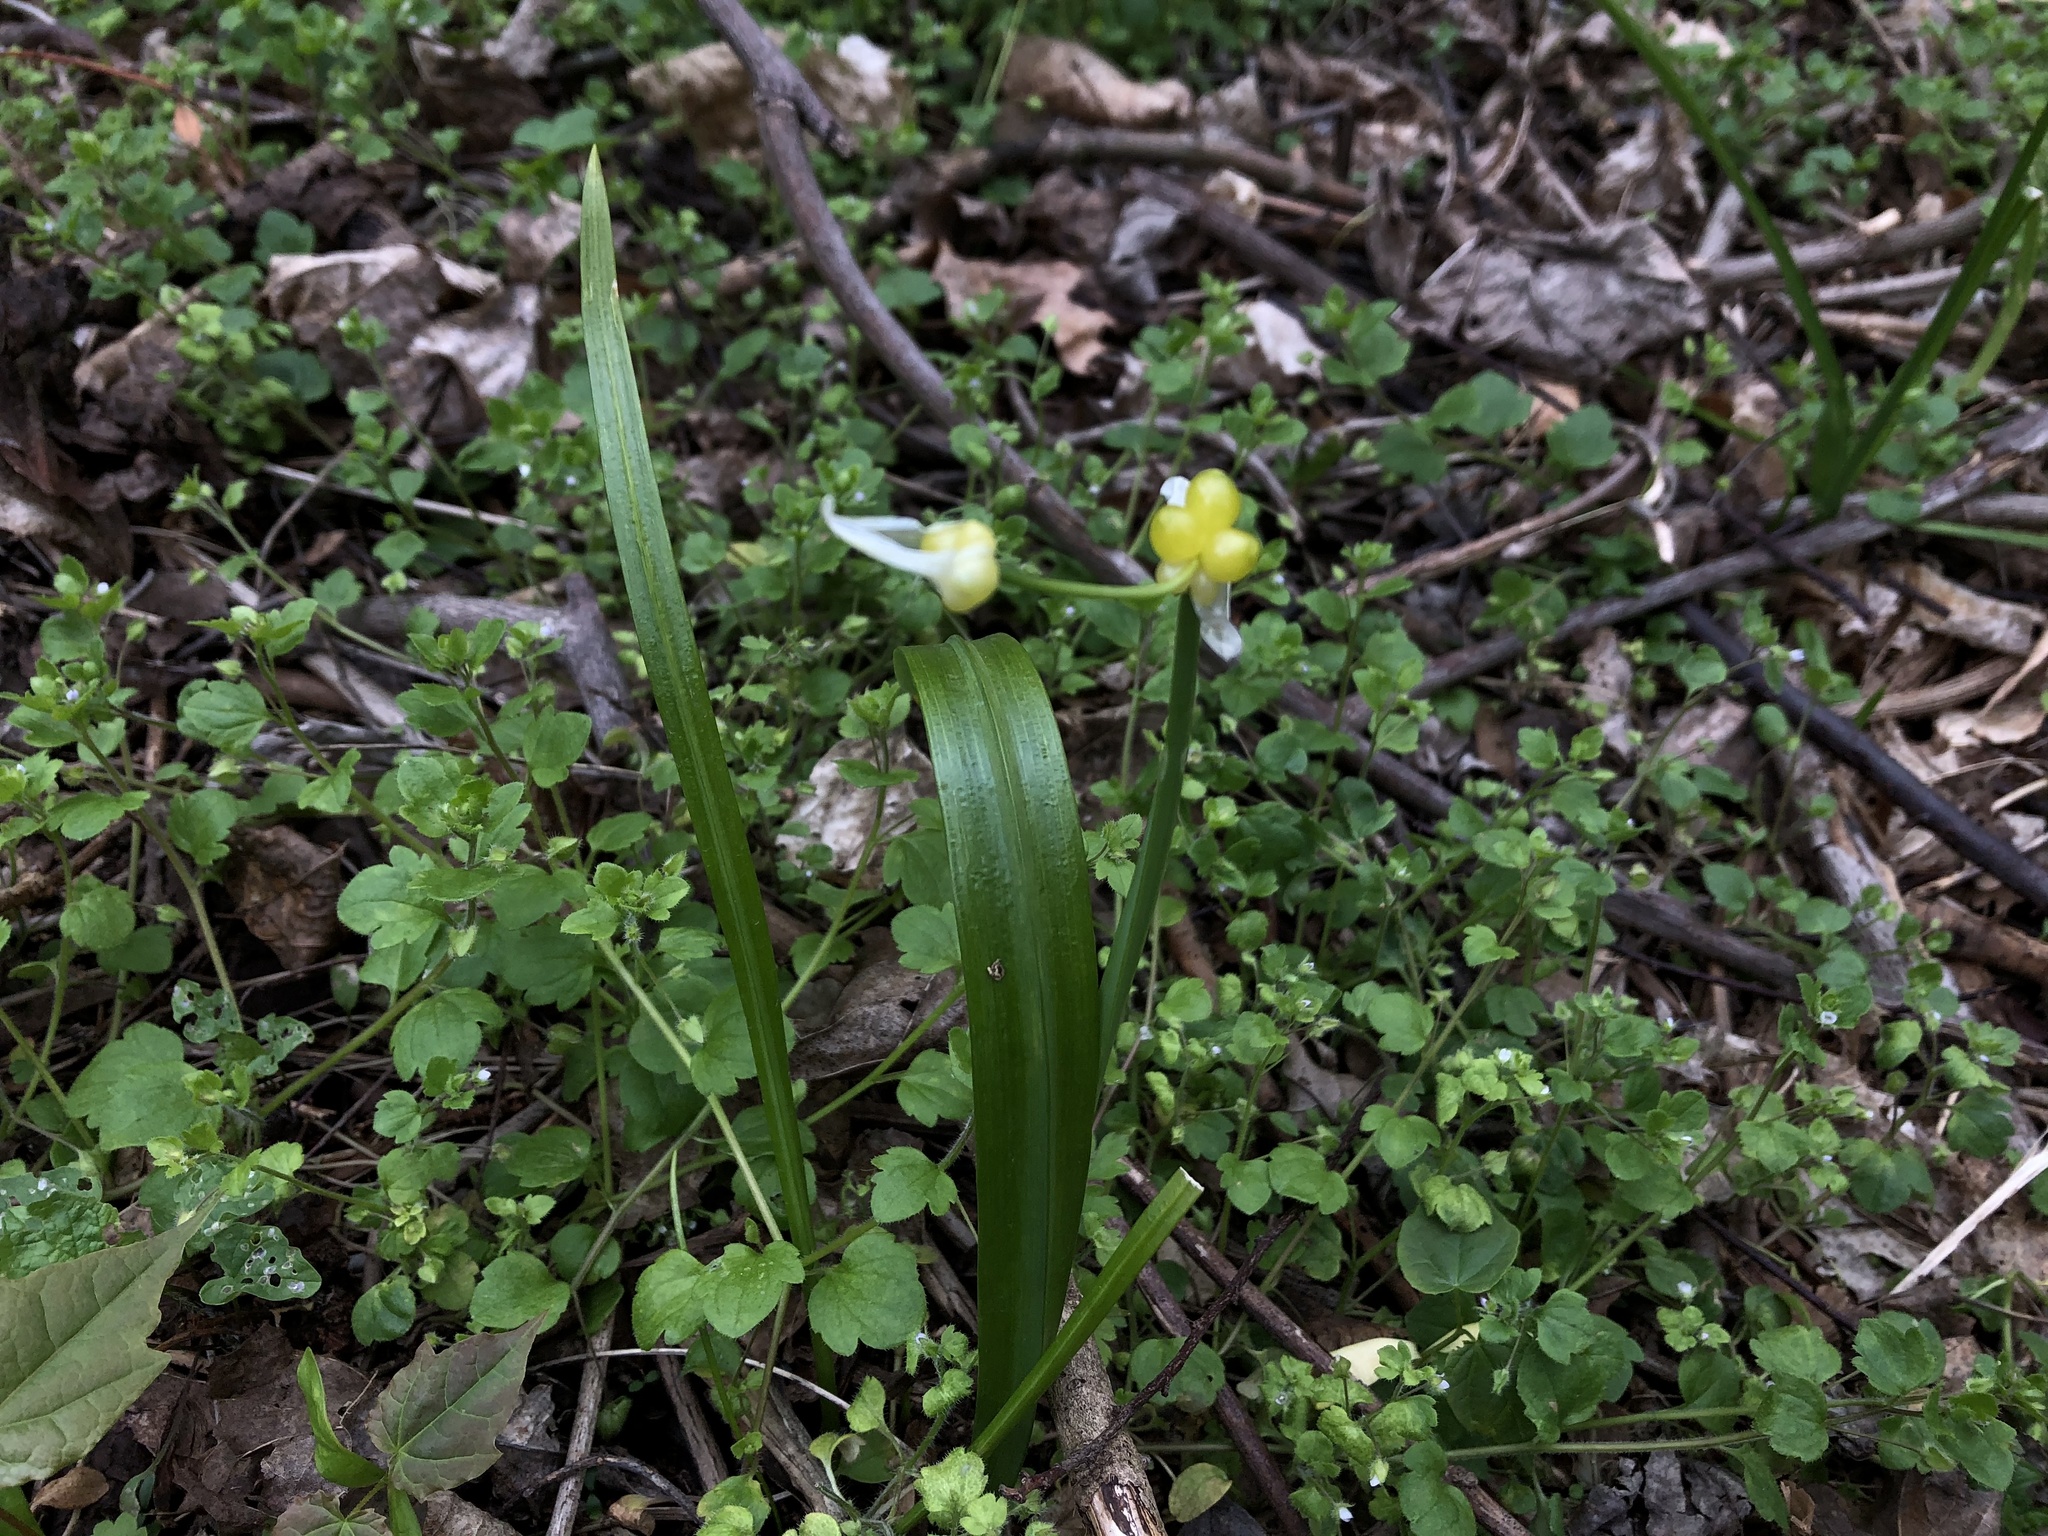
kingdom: Plantae
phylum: Tracheophyta
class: Liliopsida
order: Asparagales
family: Amaryllidaceae
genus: Allium
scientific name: Allium paradoxum
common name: Few-flowered garlic
